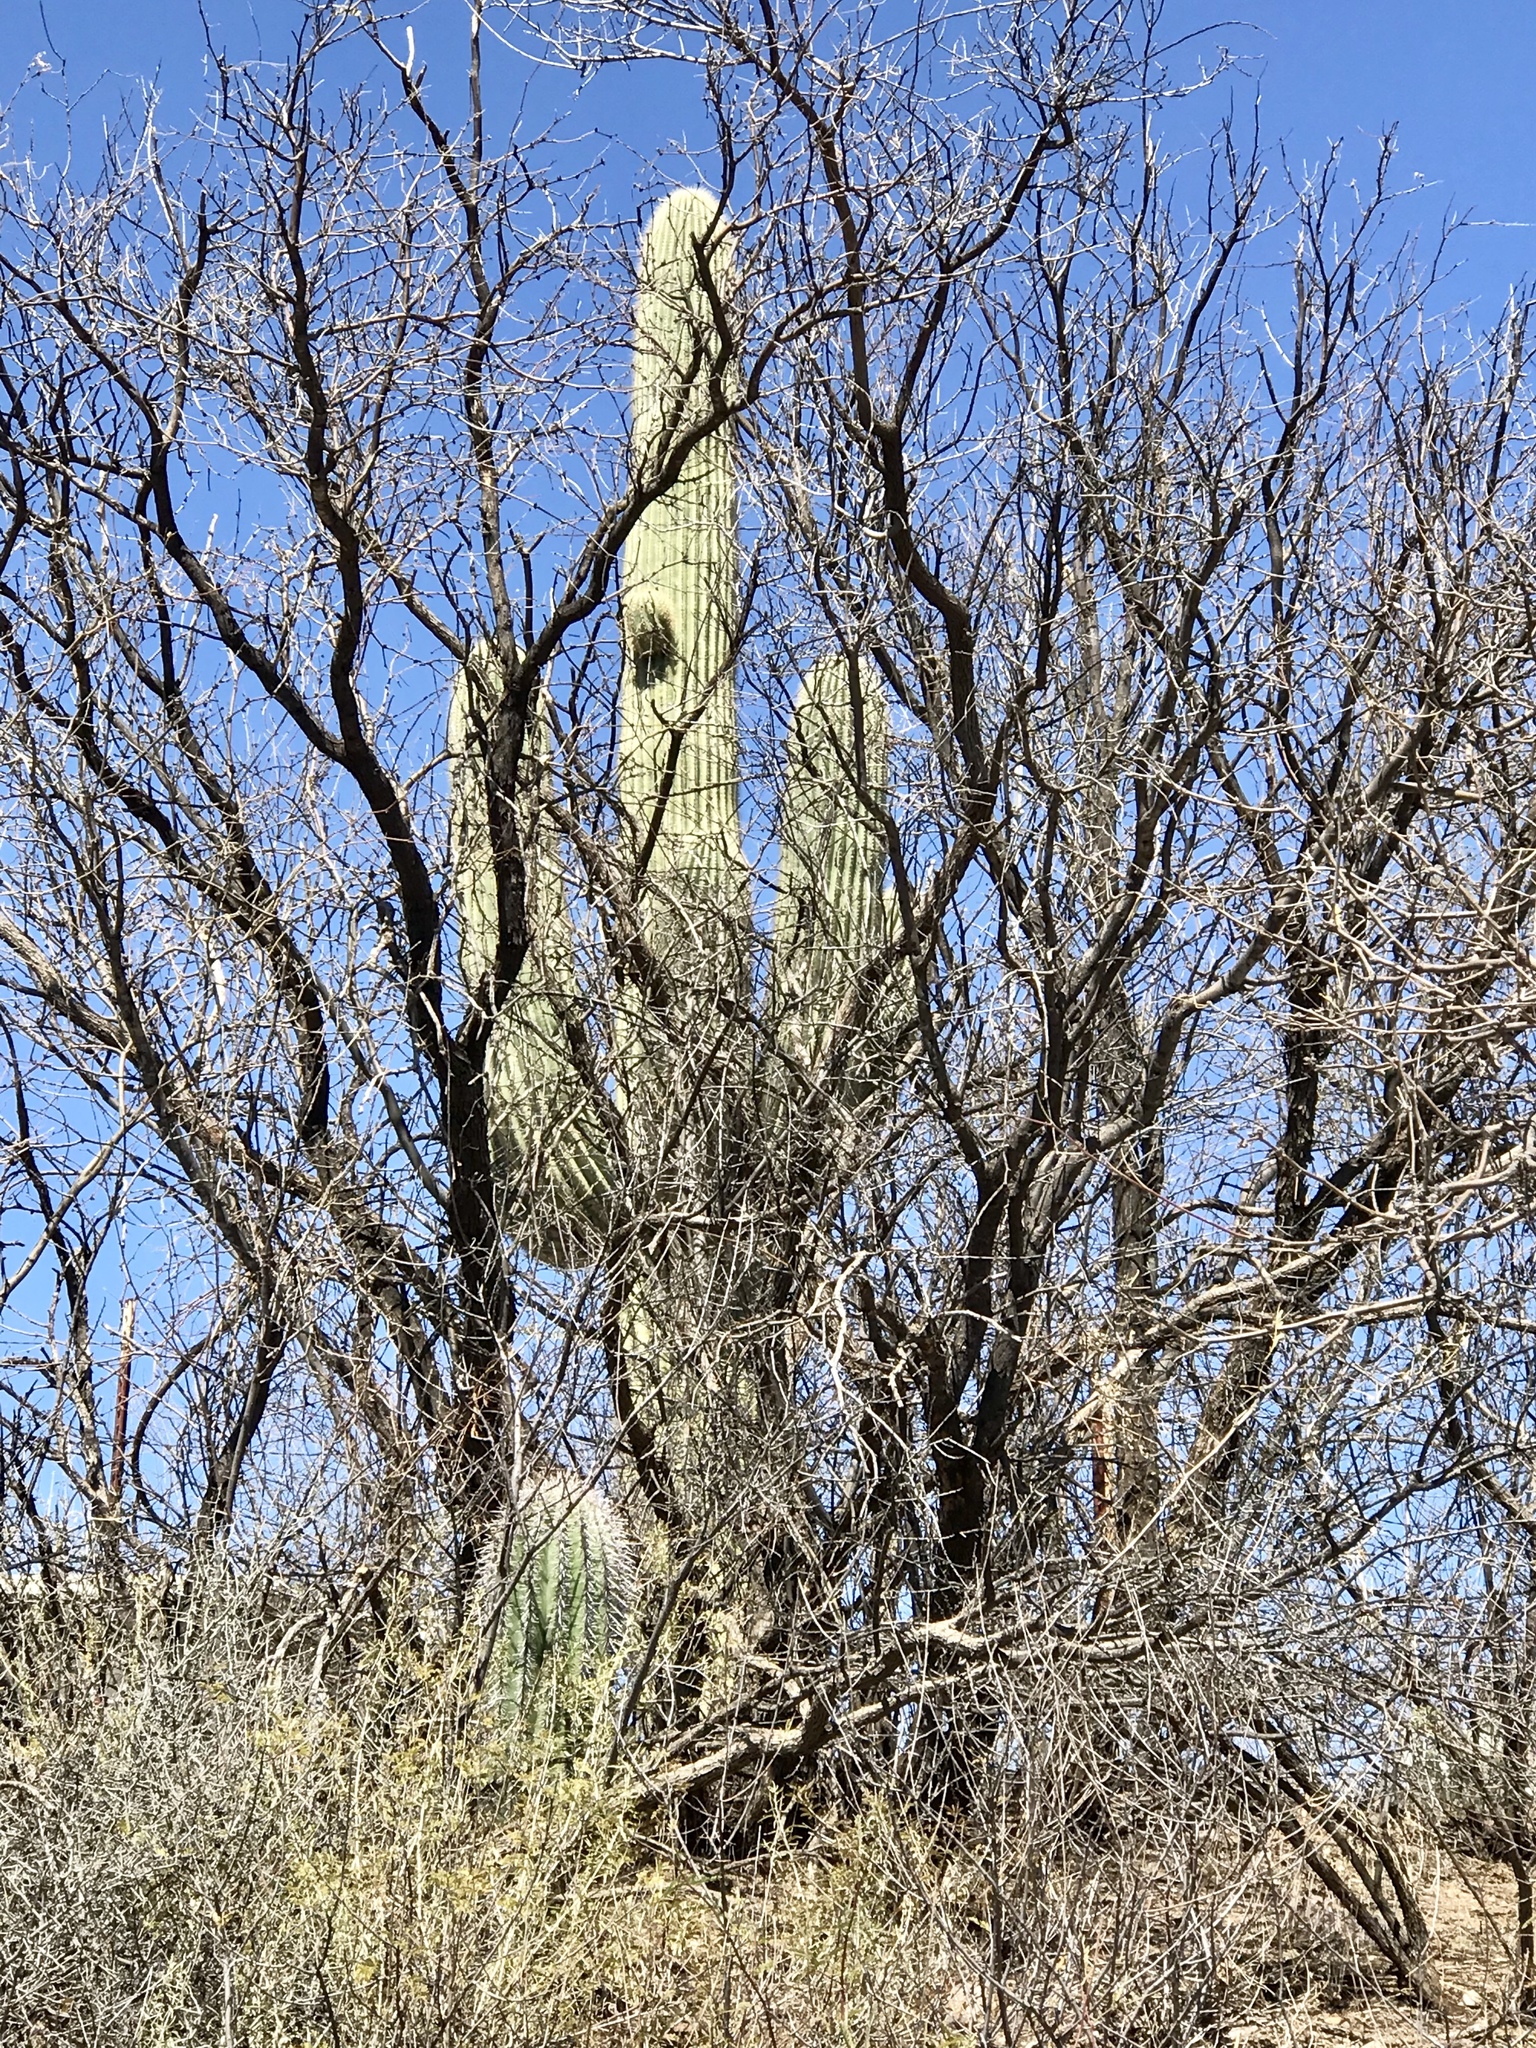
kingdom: Plantae
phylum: Tracheophyta
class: Magnoliopsida
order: Caryophyllales
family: Cactaceae
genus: Carnegiea
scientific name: Carnegiea gigantea
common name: Saguaro
